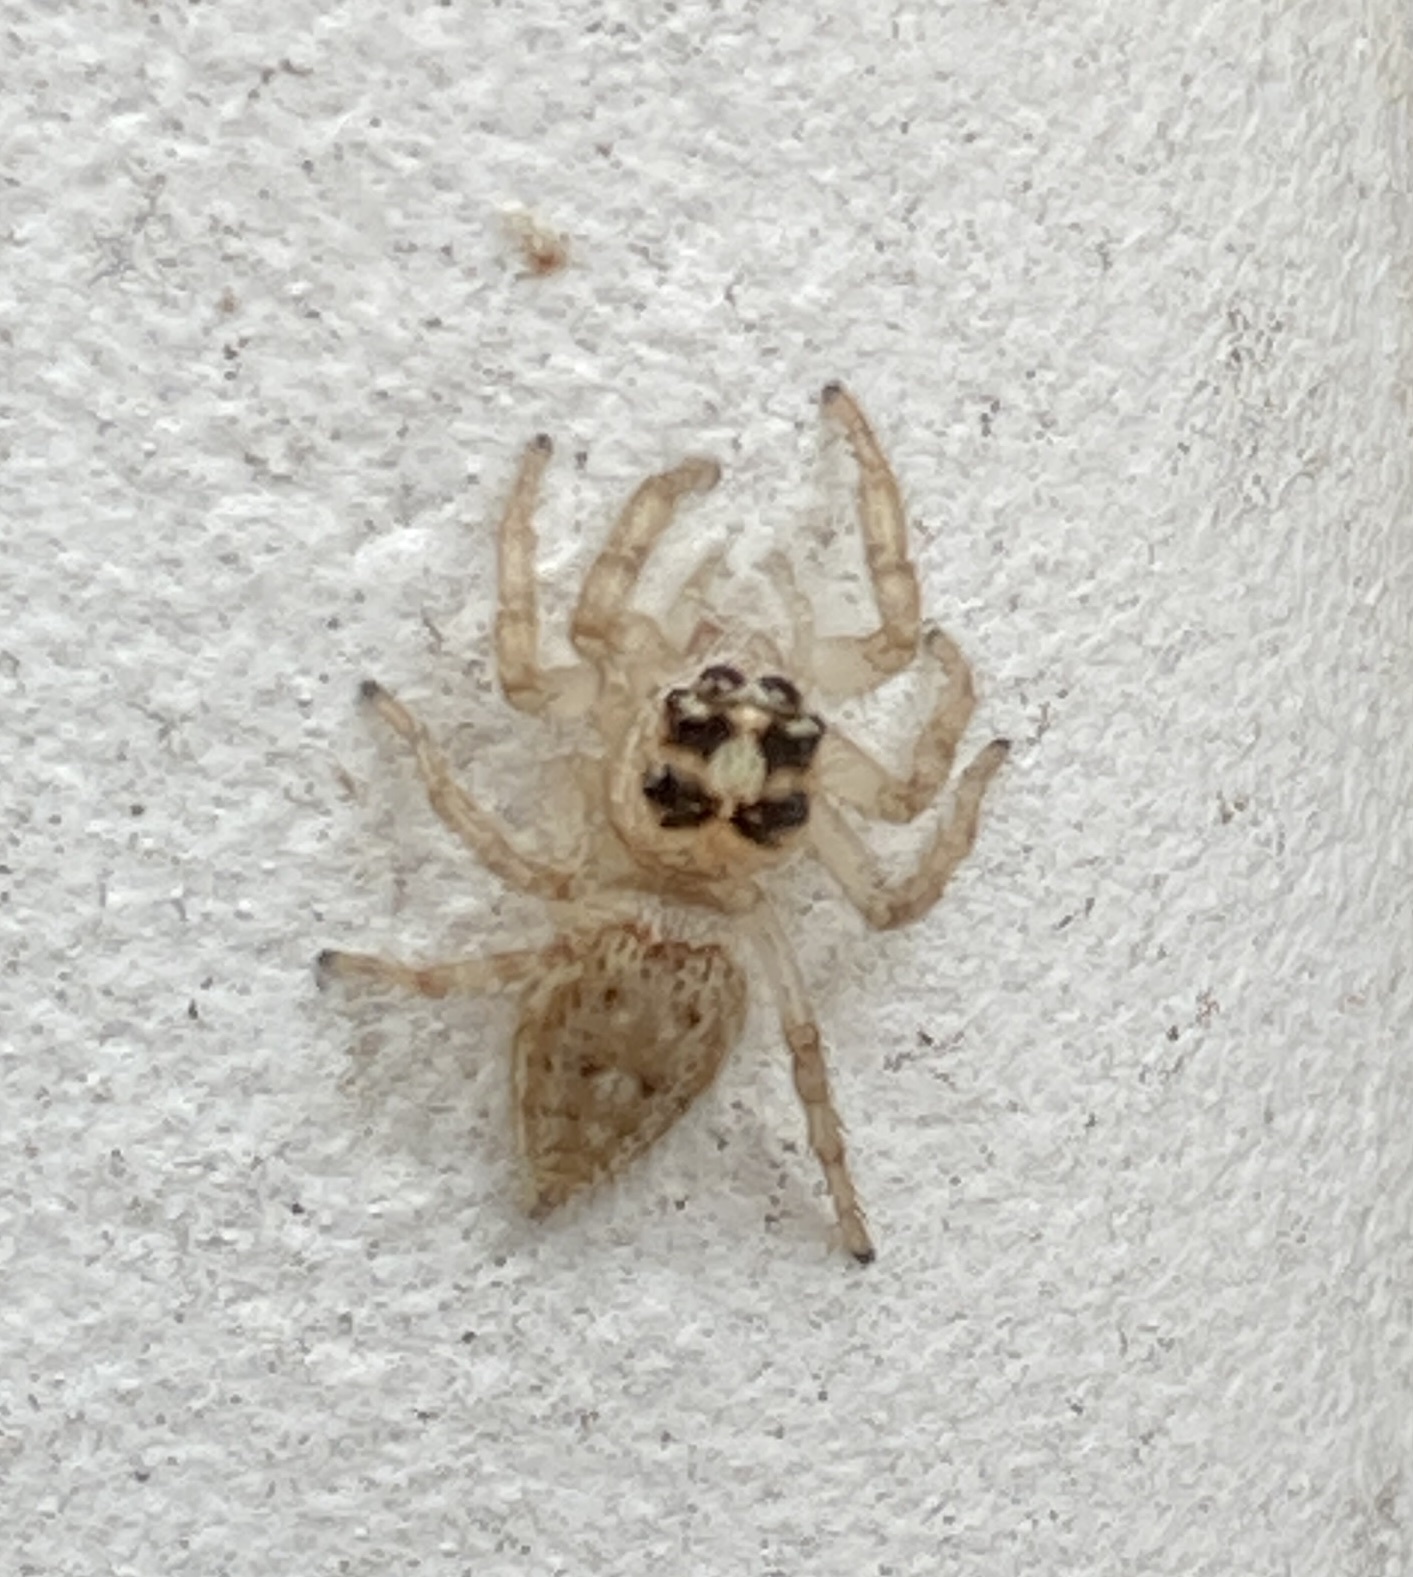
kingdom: Animalia
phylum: Arthropoda
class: Arachnida
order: Araneae
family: Salticidae
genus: Colonus
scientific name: Colonus hesperus
